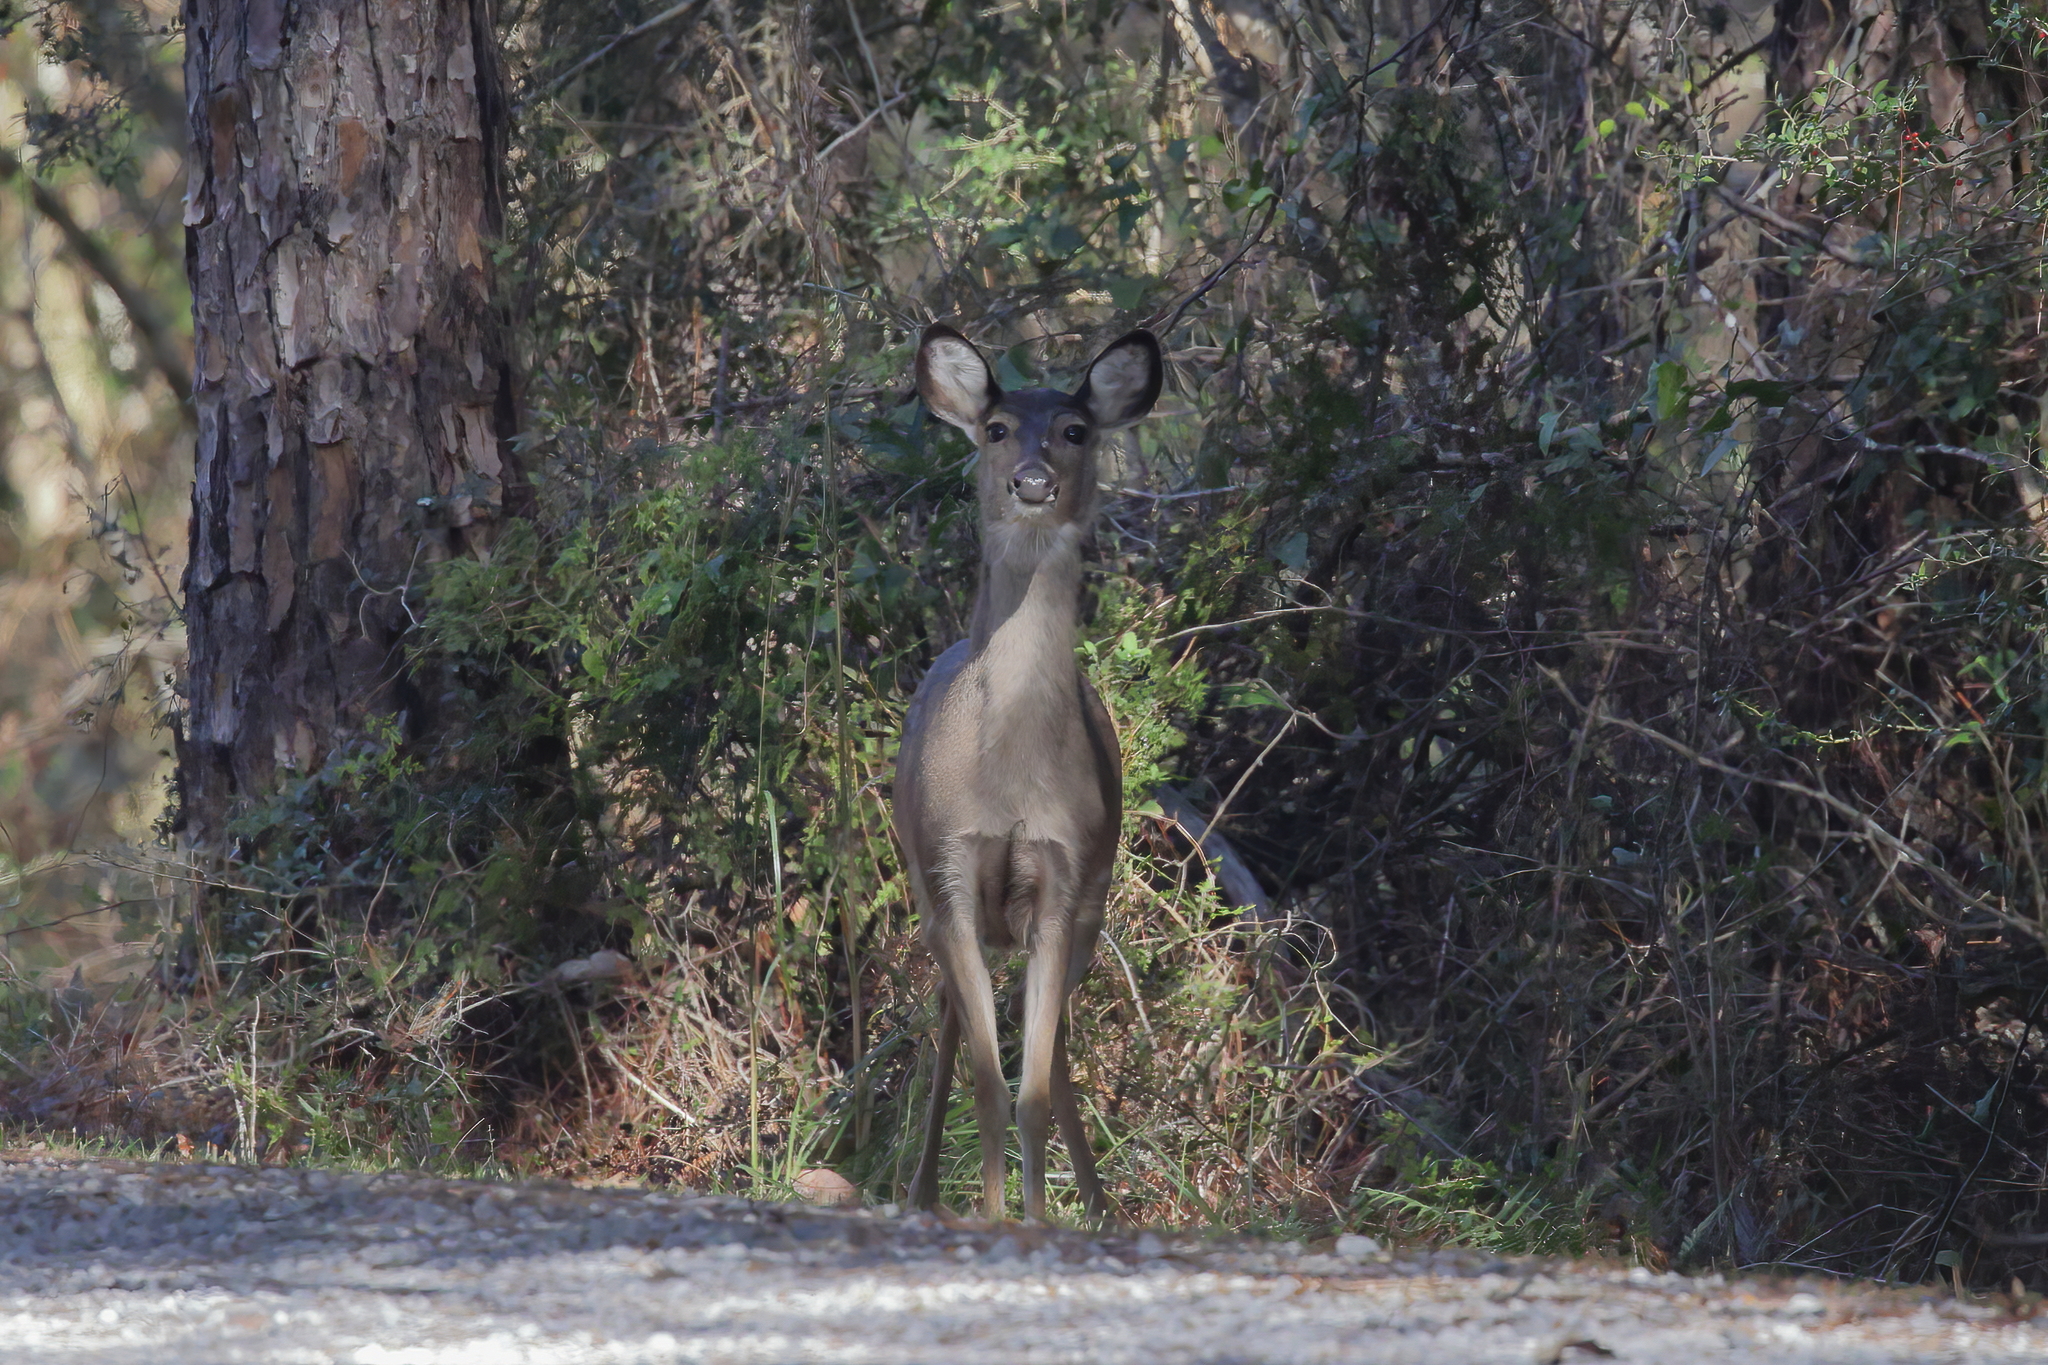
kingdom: Animalia
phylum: Chordata
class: Mammalia
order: Artiodactyla
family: Cervidae
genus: Odocoileus
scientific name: Odocoileus virginianus
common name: White-tailed deer
